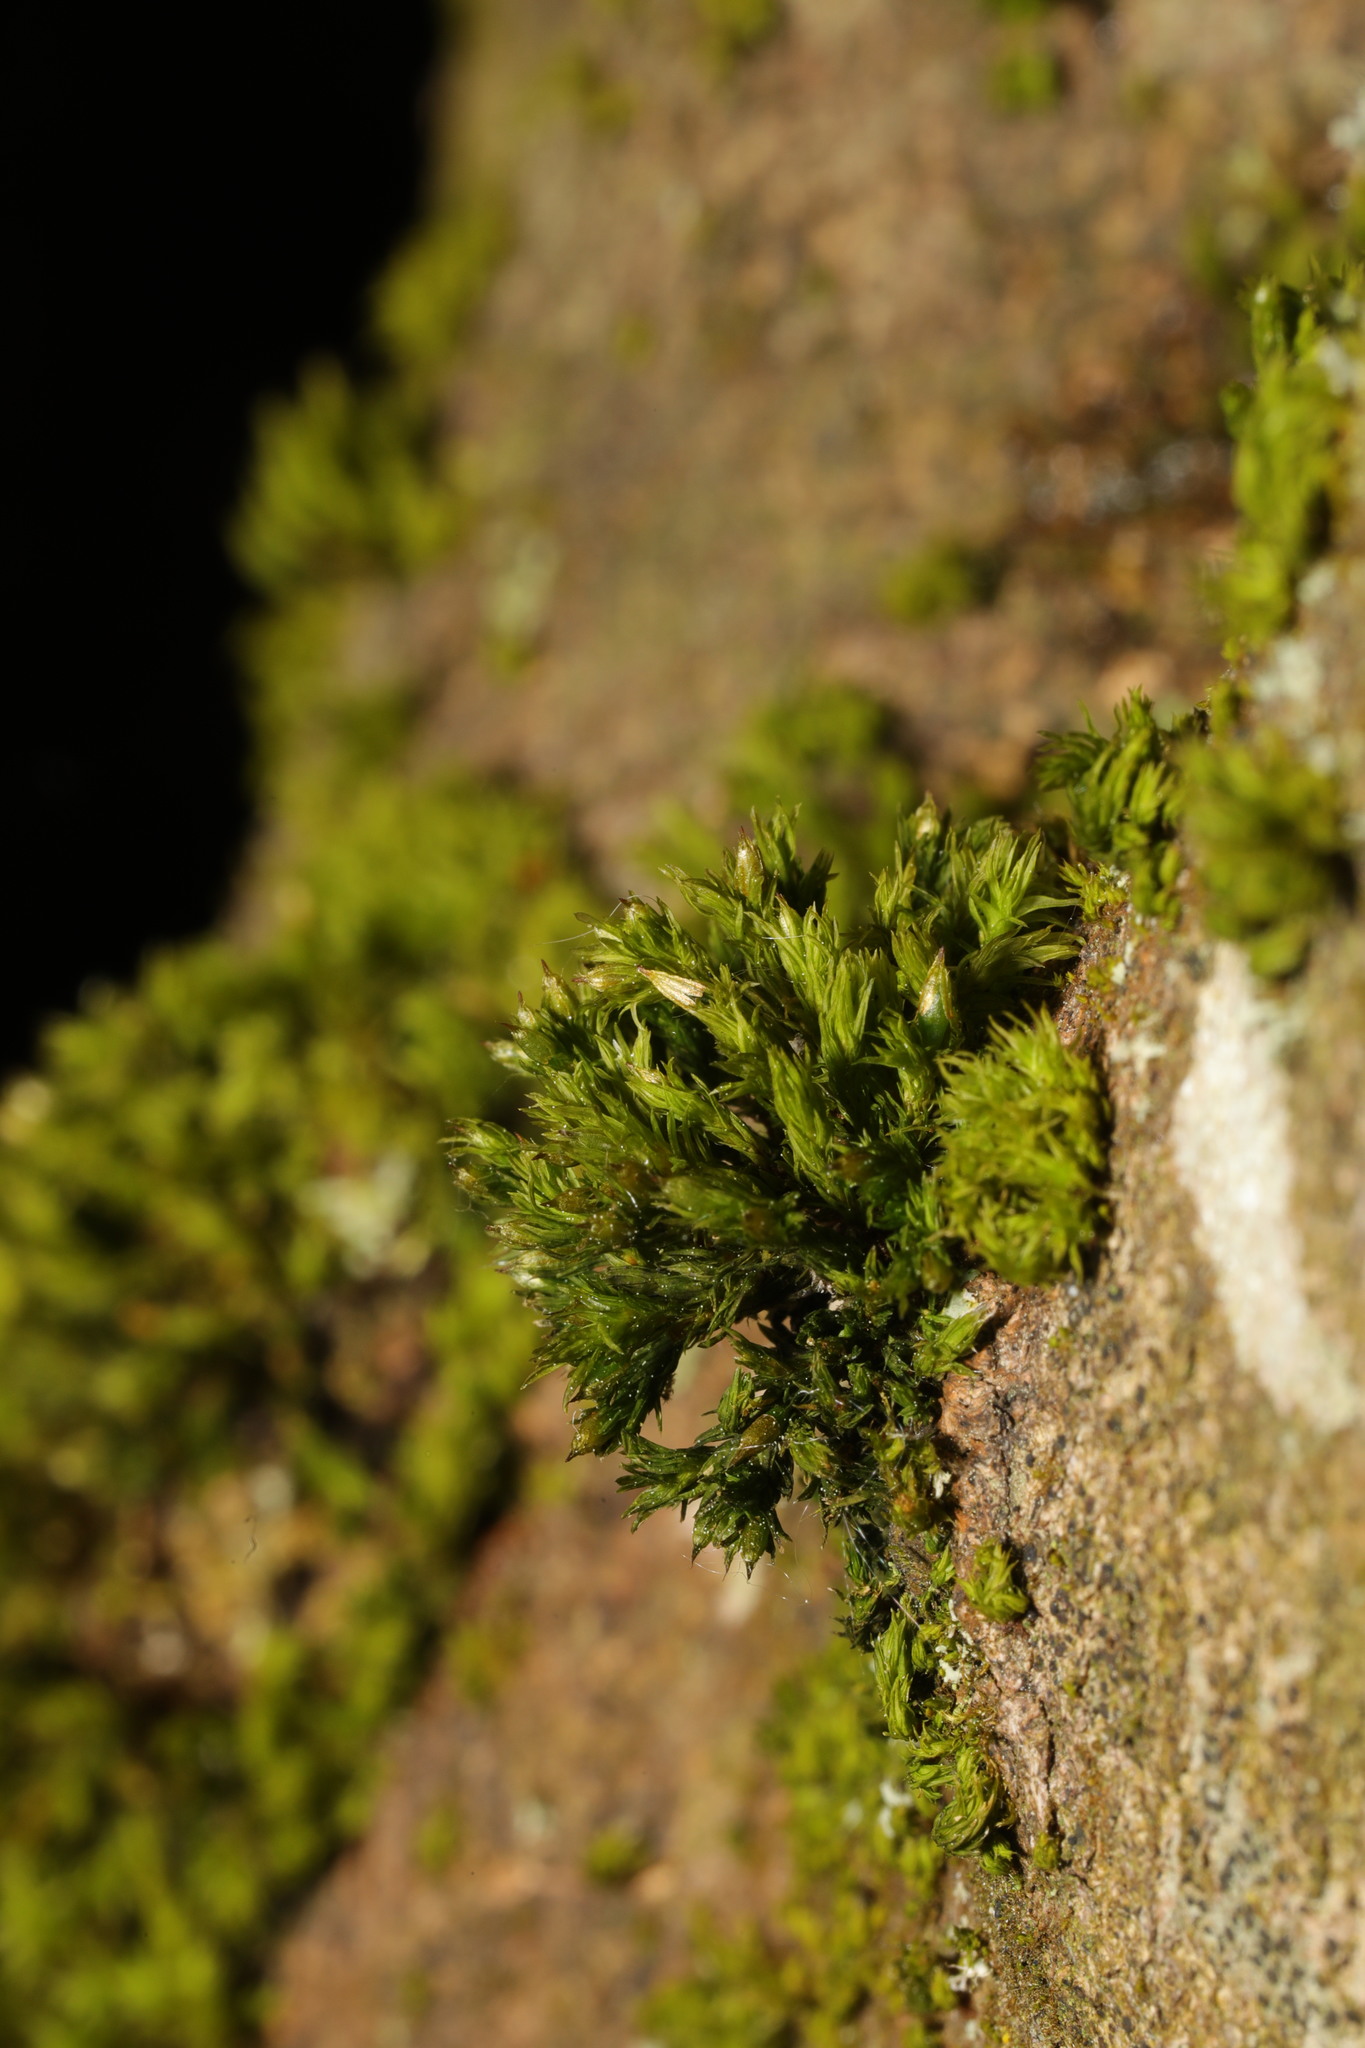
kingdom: Plantae
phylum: Bryophyta
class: Bryopsida
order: Orthotrichales
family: Orthotrichaceae
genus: Orthotrichum
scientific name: Orthotrichum stramineum
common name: Straw bristle-moss
